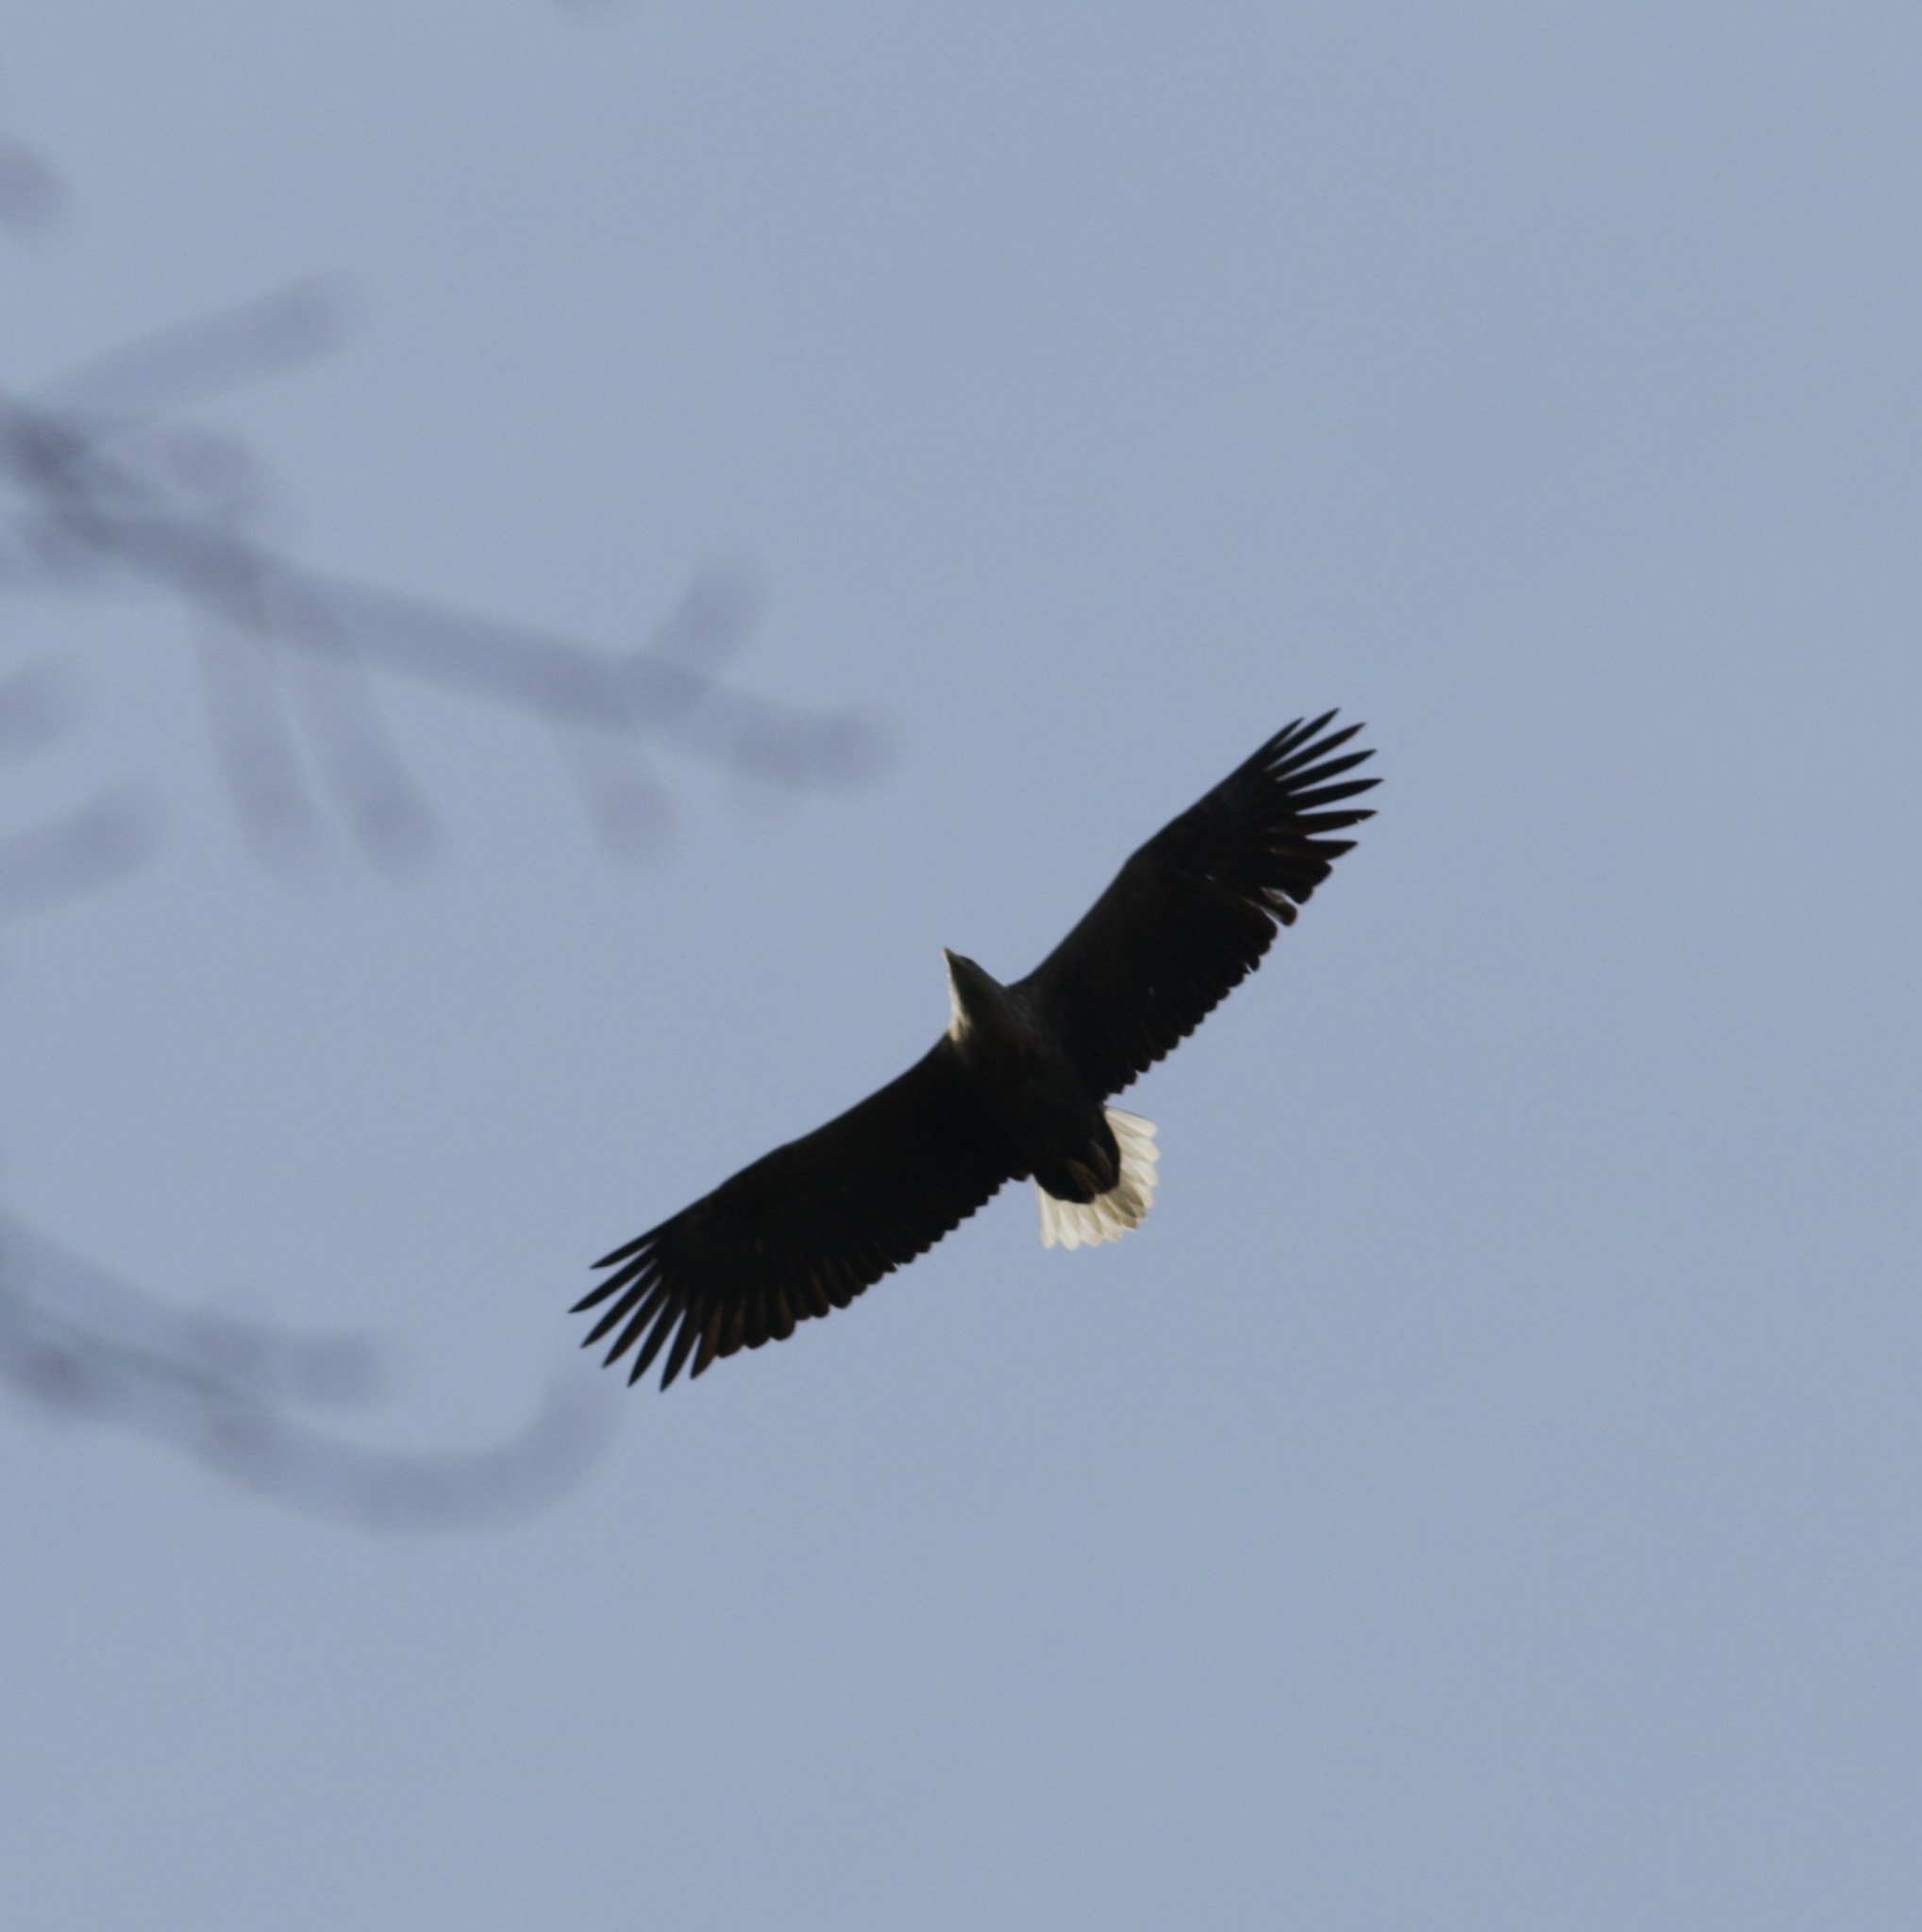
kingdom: Animalia
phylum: Chordata
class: Aves
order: Accipitriformes
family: Accipitridae
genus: Haliaeetus
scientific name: Haliaeetus albicilla
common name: White-tailed eagle
